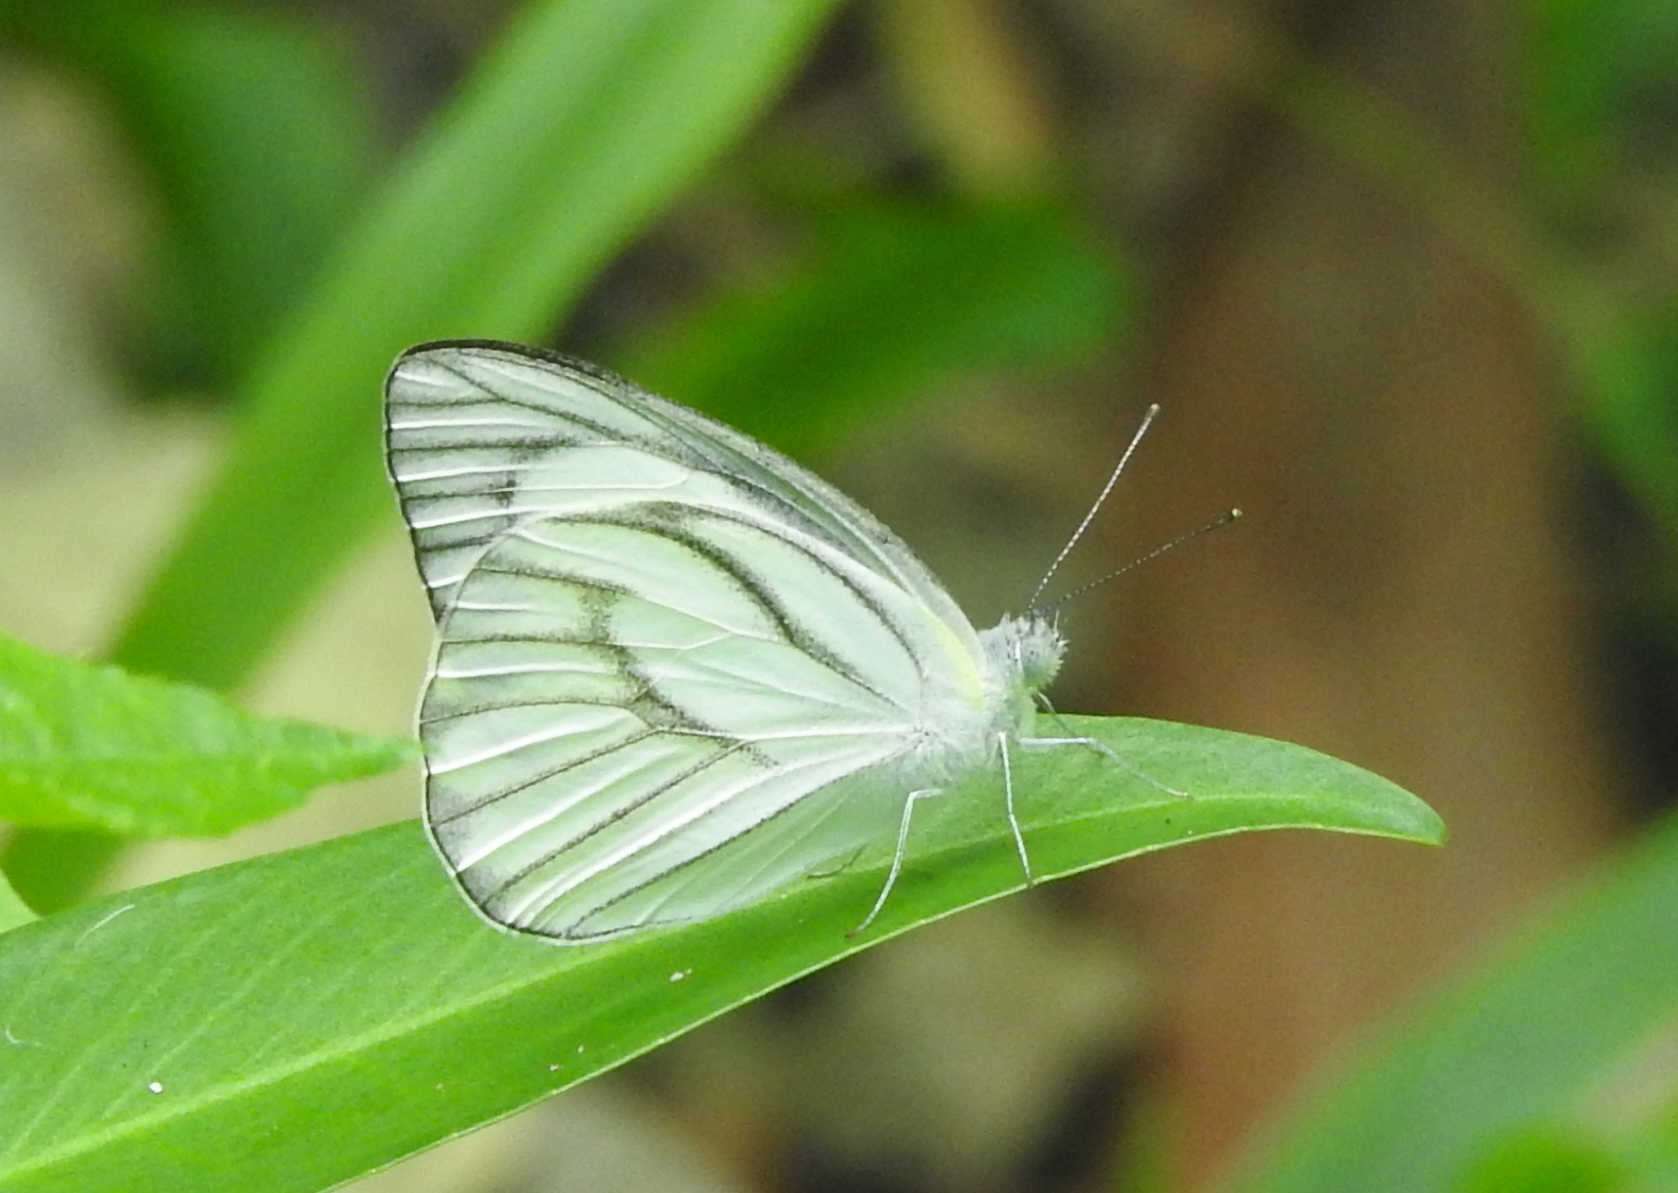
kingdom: Animalia
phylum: Arthropoda
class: Insecta
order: Lepidoptera
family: Pieridae
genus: Appias
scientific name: Appias libythea
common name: Striped albatross
